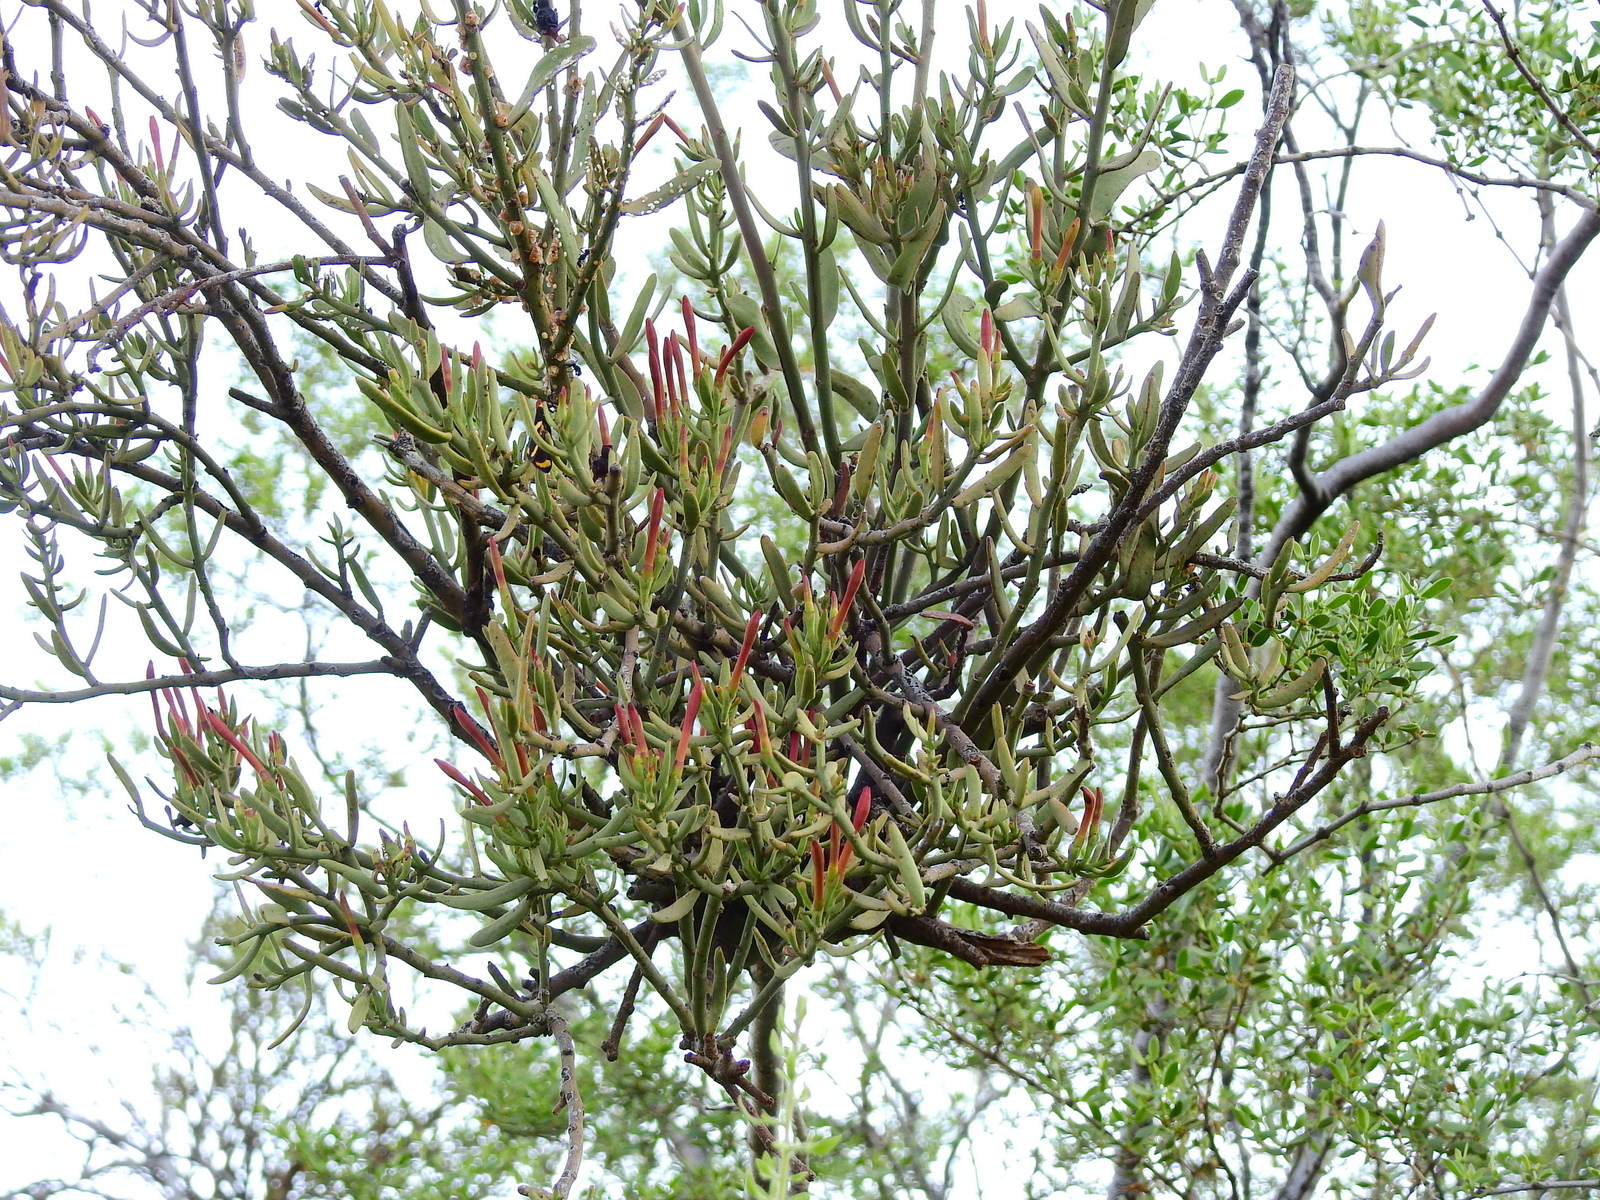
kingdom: Plantae
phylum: Tracheophyta
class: Magnoliopsida
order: Santalales
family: Loranthaceae
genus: Ligaria
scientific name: Ligaria cuneifolia
